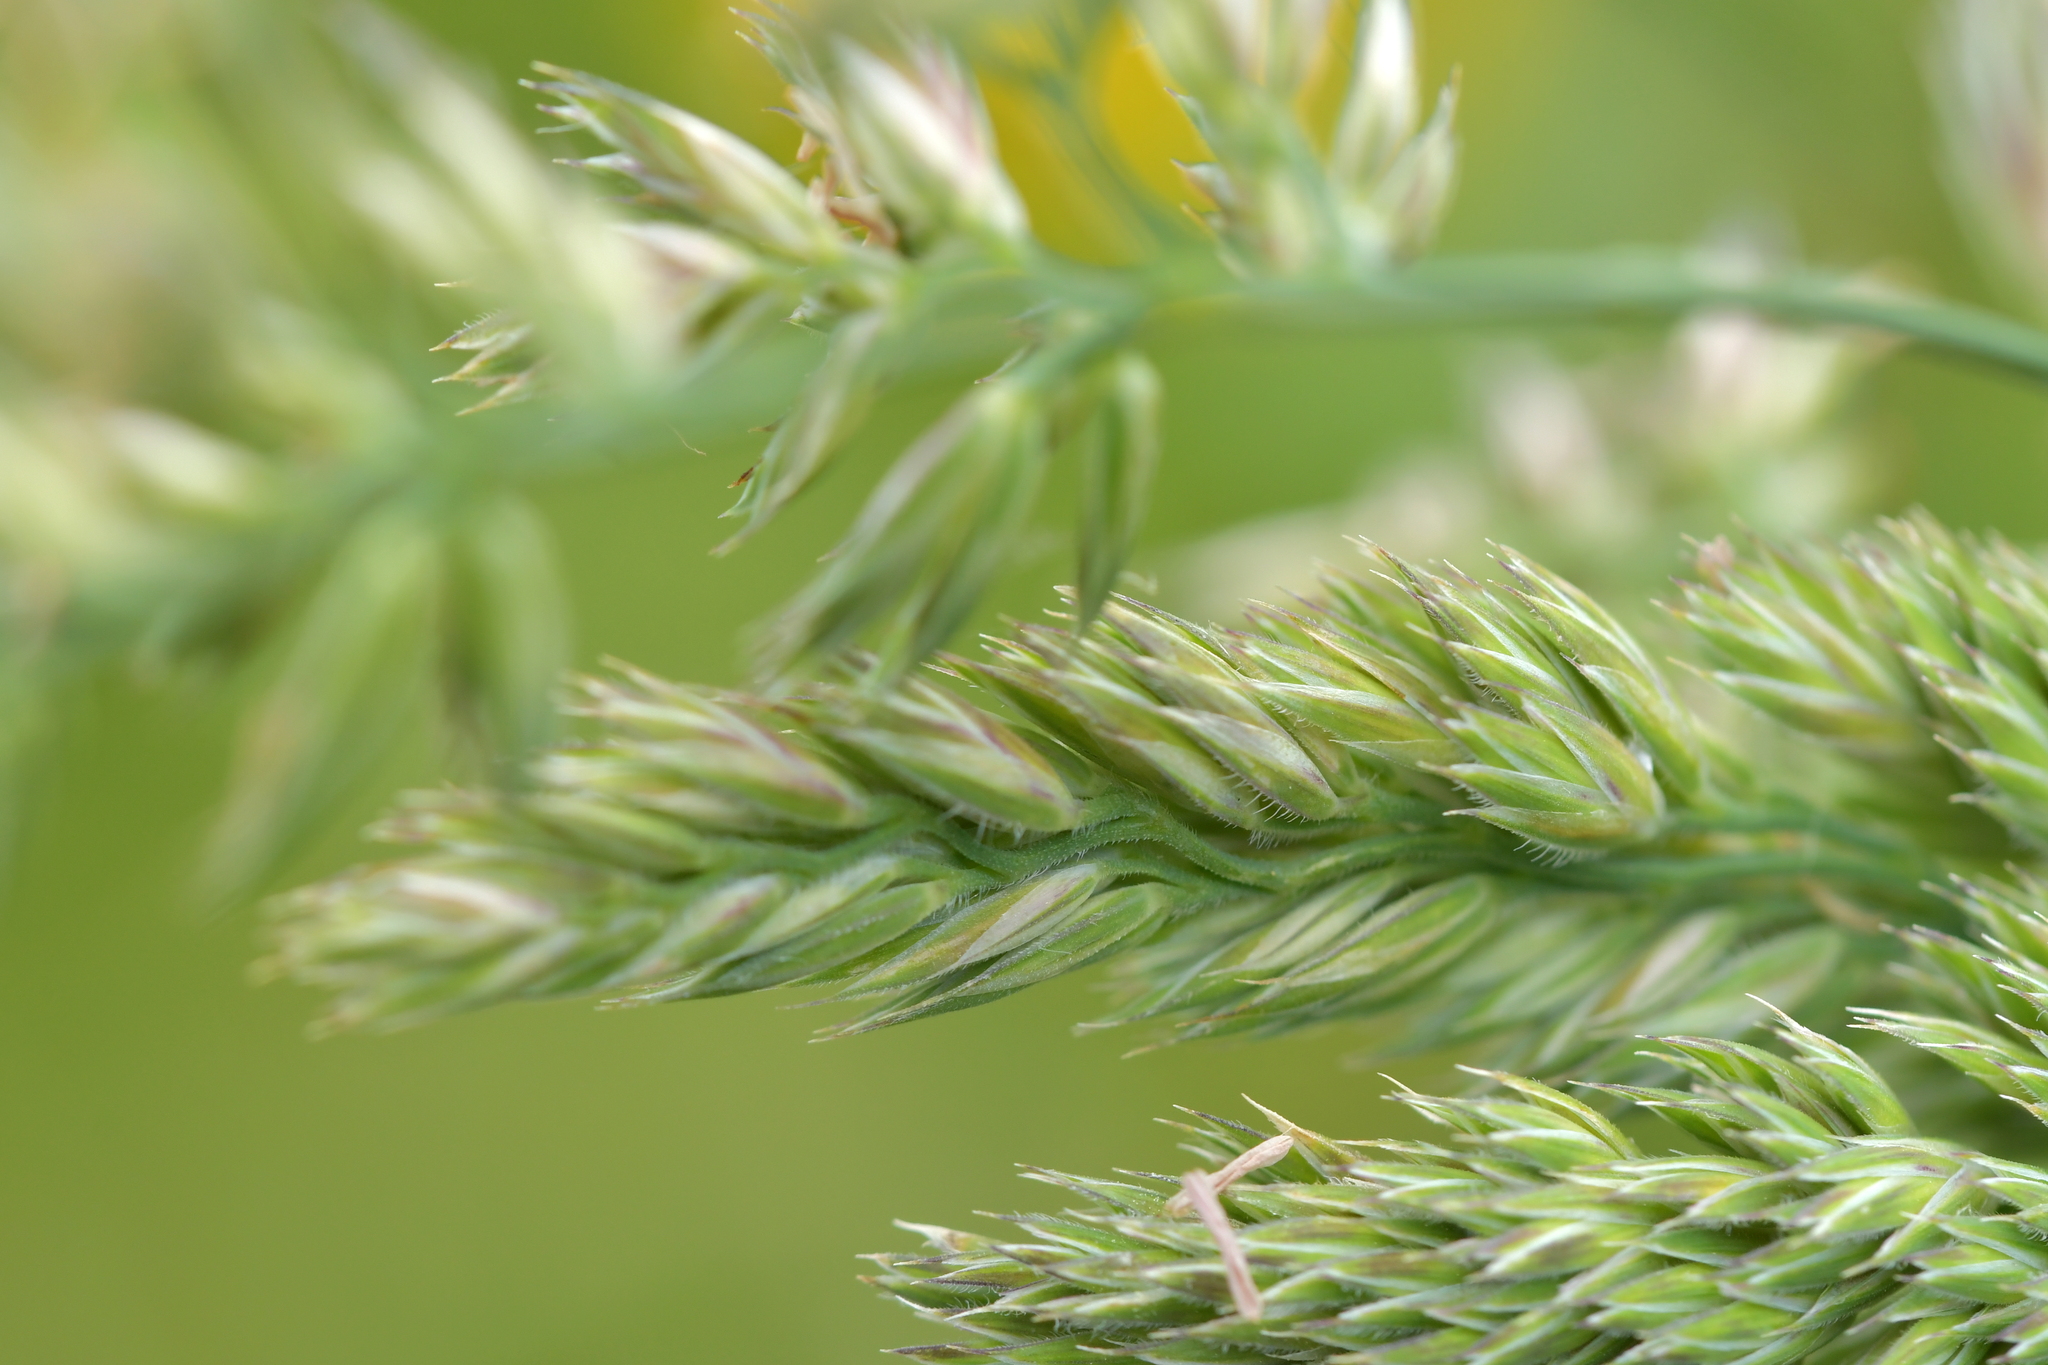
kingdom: Plantae
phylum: Tracheophyta
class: Liliopsida
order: Poales
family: Poaceae
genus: Dactylis
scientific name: Dactylis glomerata
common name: Orchardgrass
